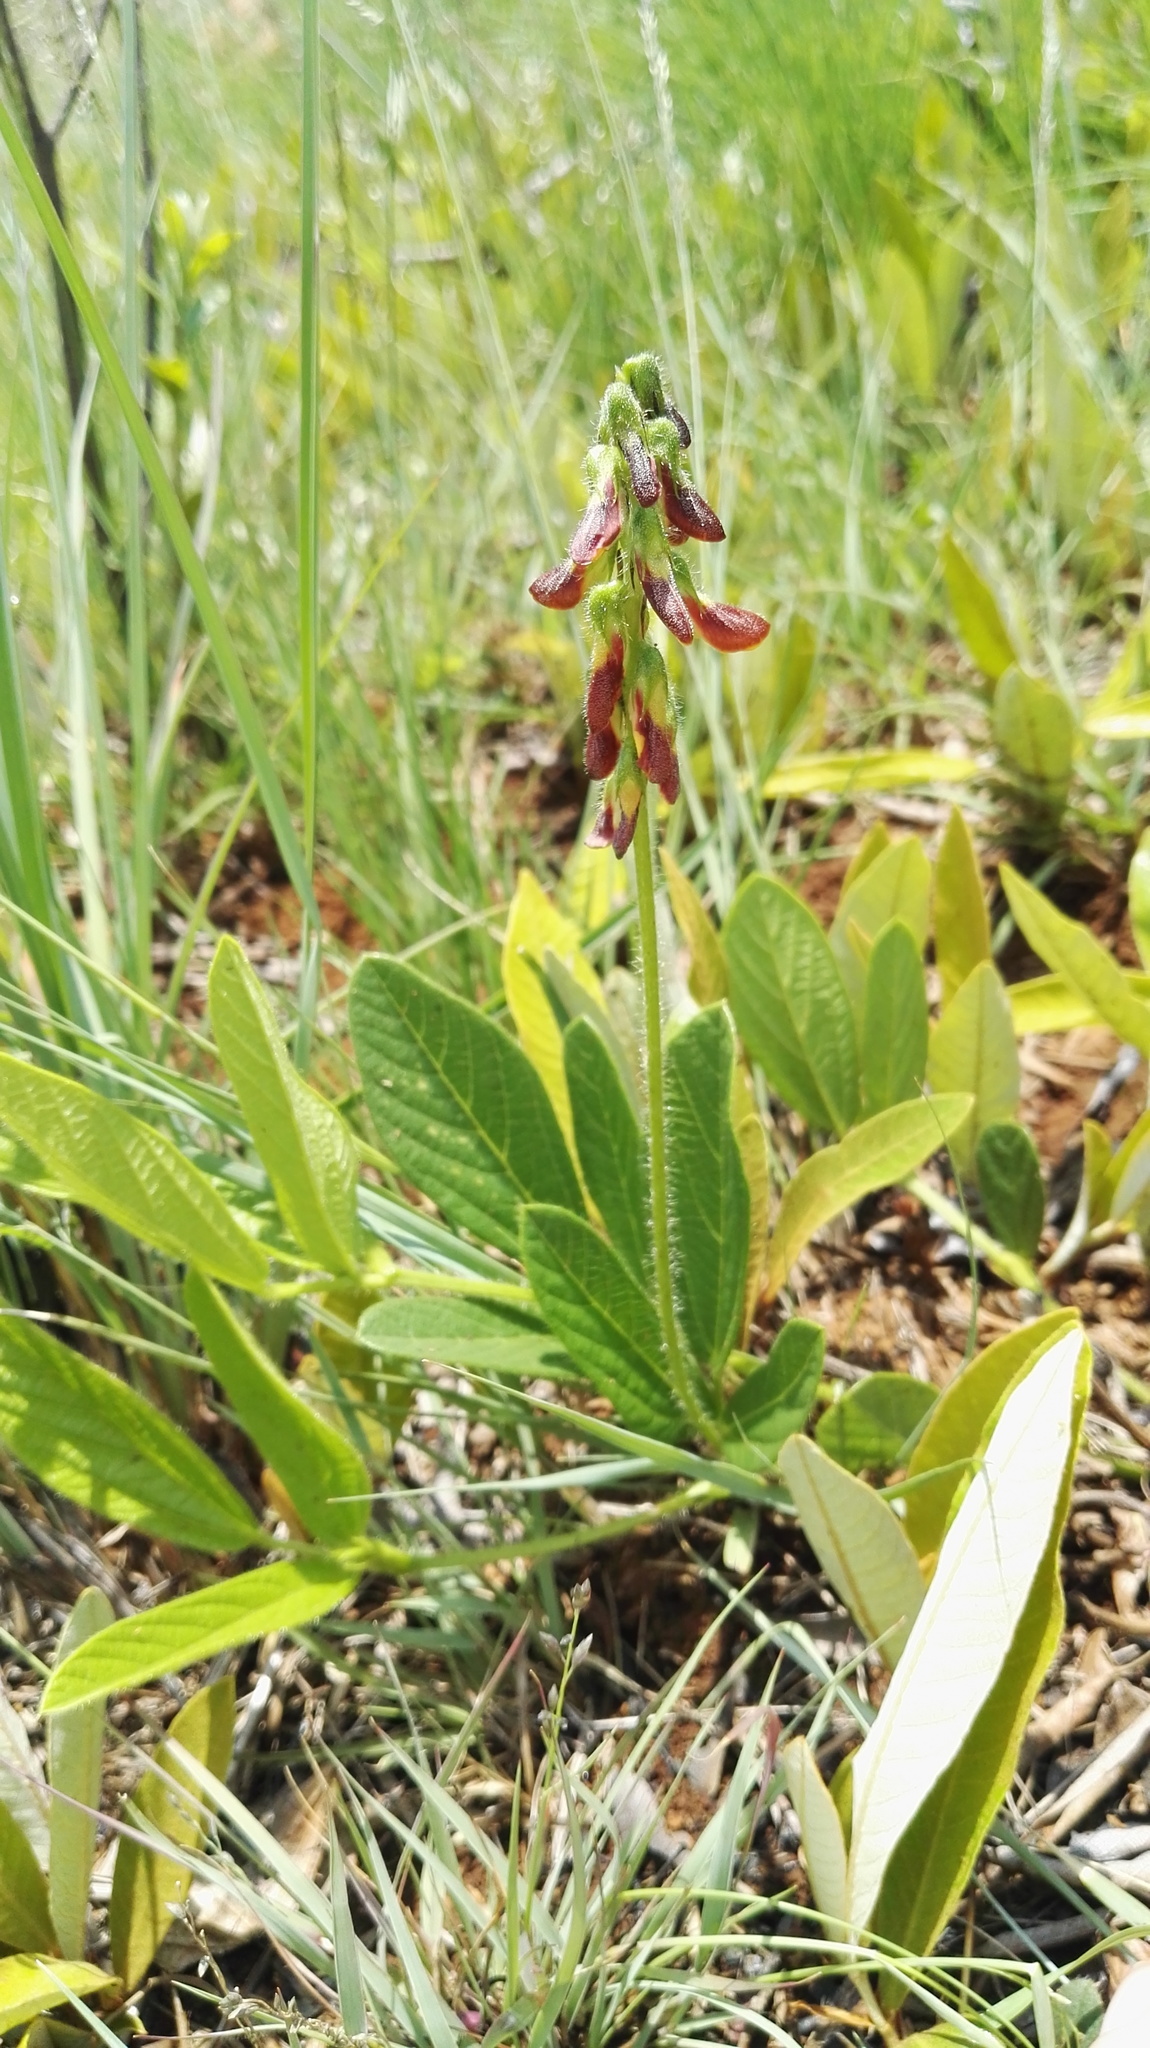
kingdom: Plantae
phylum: Tracheophyta
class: Magnoliopsida
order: Fabales
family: Fabaceae
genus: Eriosema
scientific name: Eriosema cordatum
